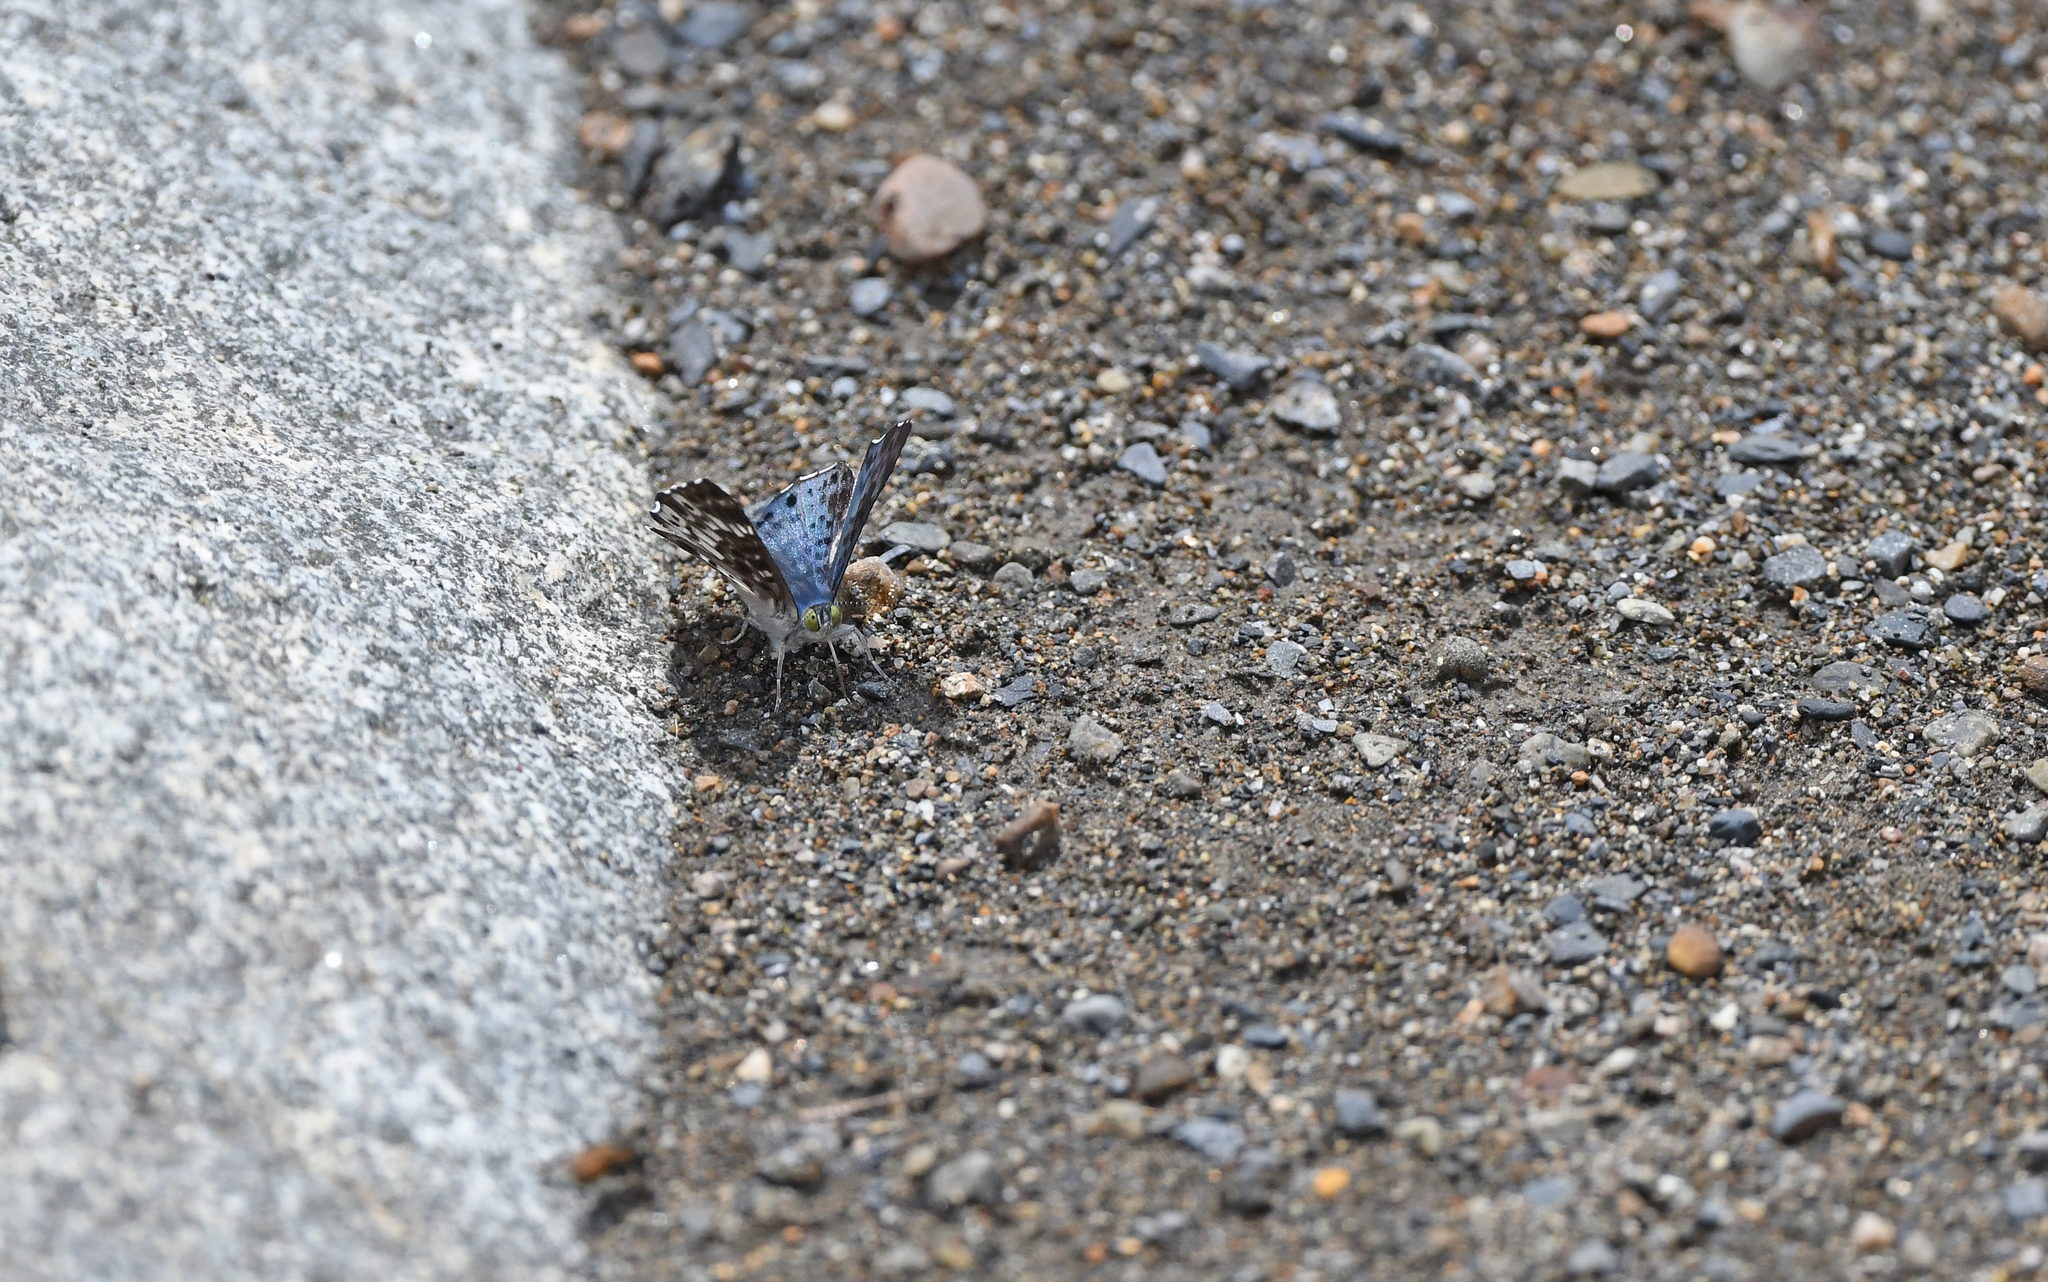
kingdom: Animalia
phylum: Arthropoda
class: Insecta
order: Lepidoptera
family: Riodinidae
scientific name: Riodinidae
